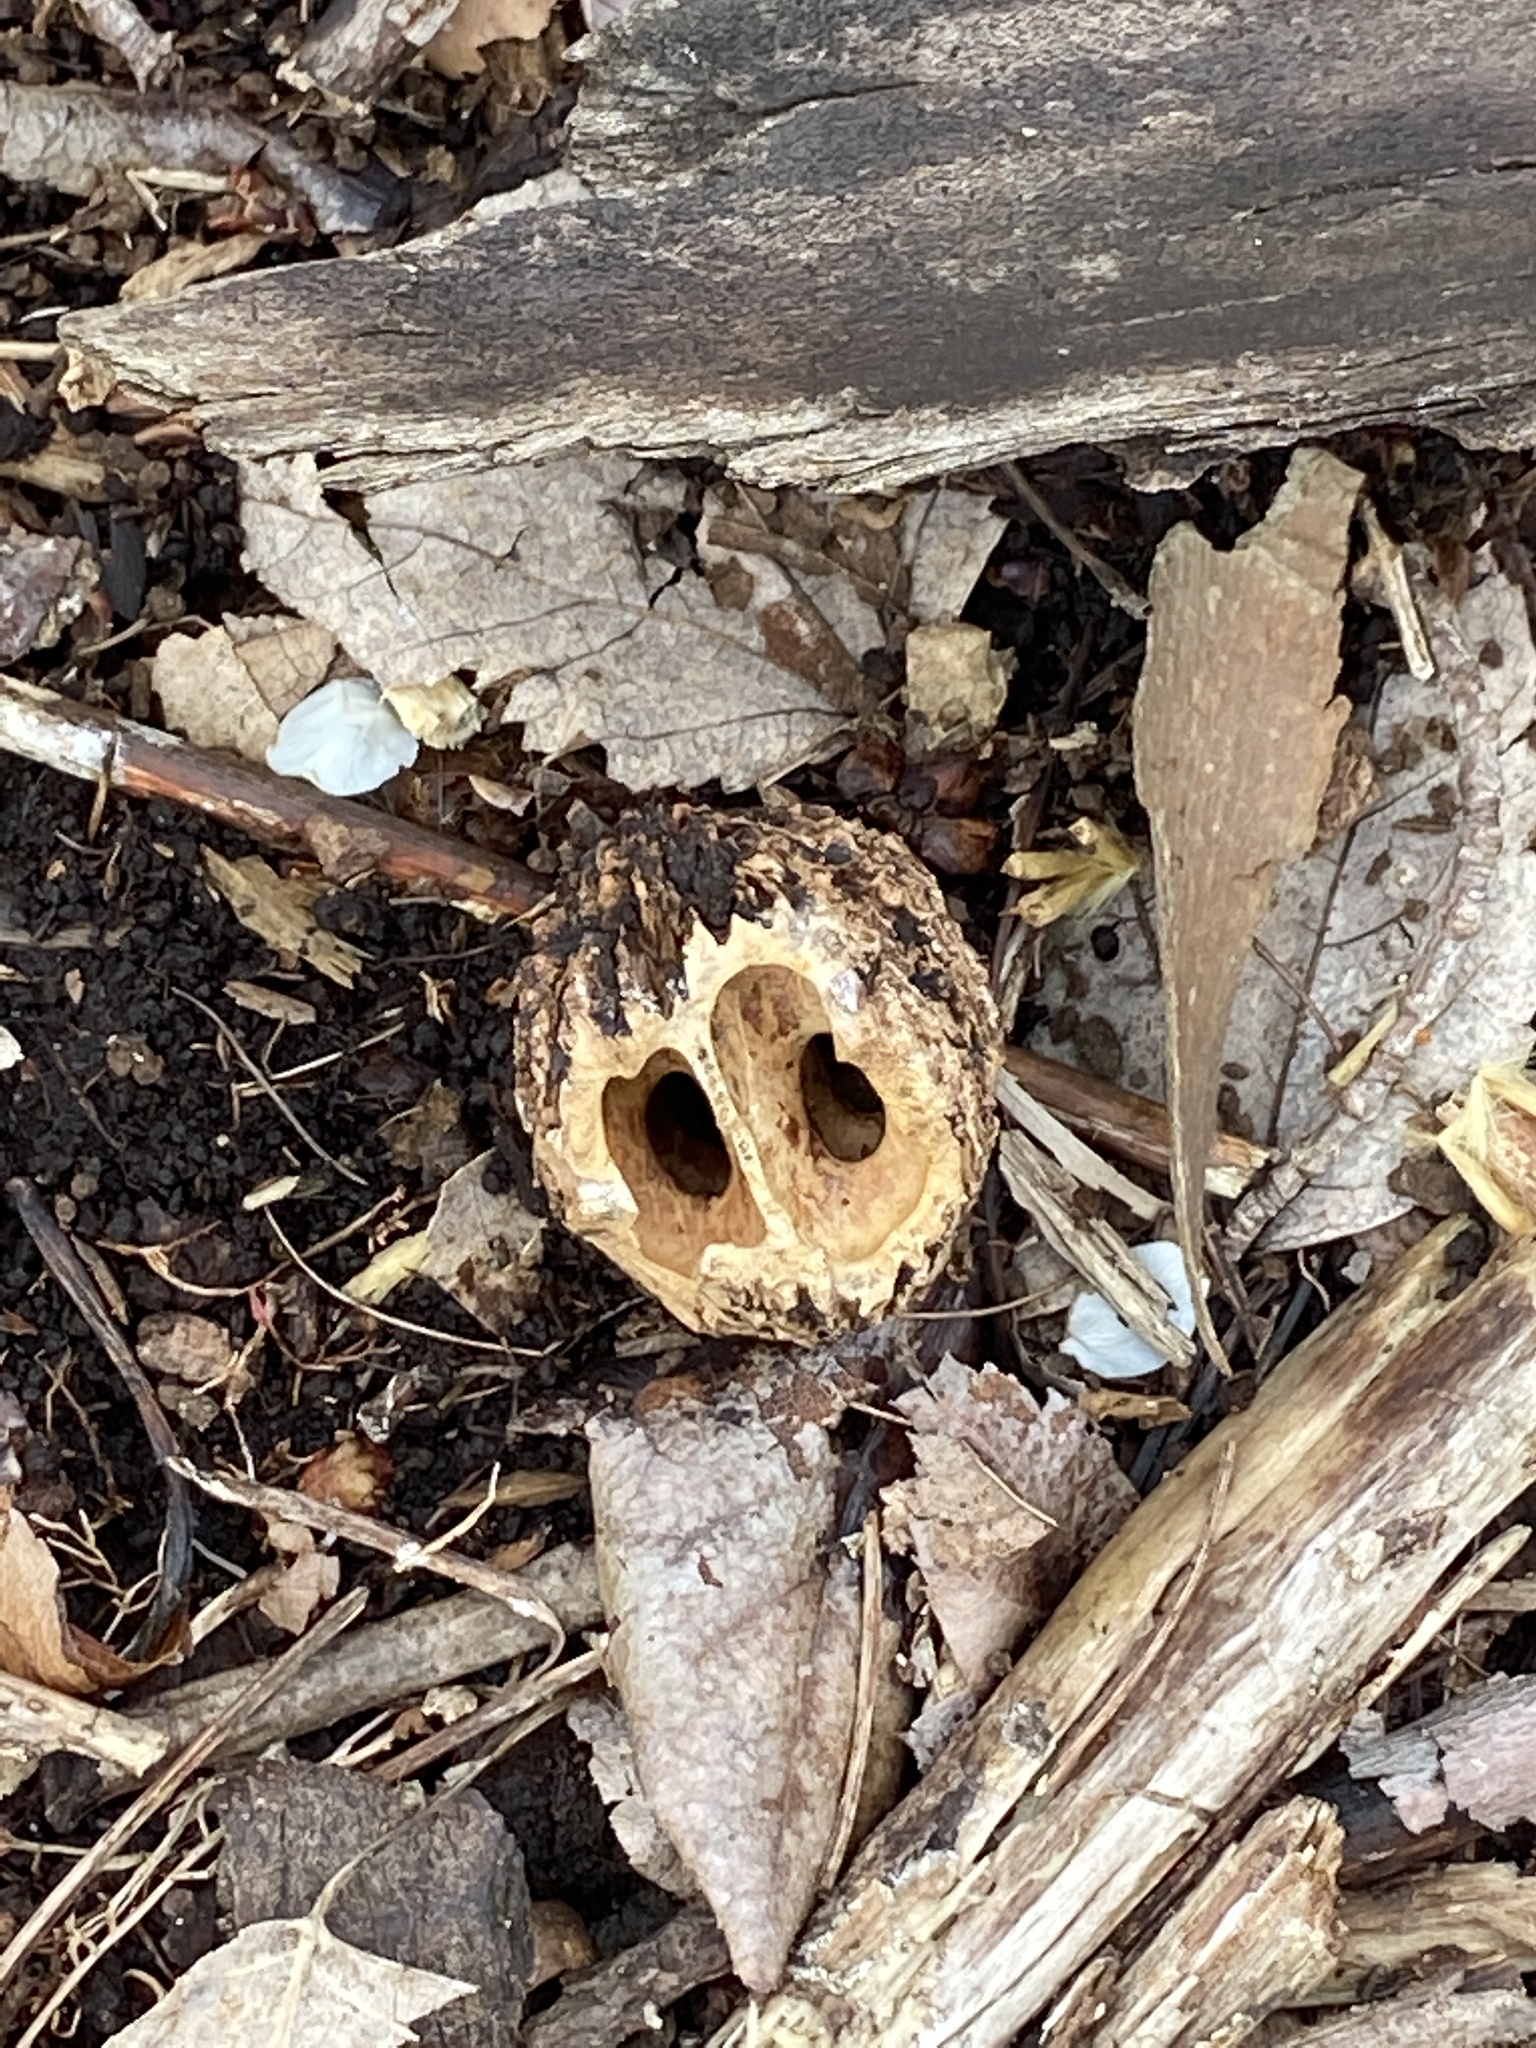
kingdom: Plantae
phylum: Tracheophyta
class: Magnoliopsida
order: Fagales
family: Juglandaceae
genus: Juglans
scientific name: Juglans nigra
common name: Black walnut
